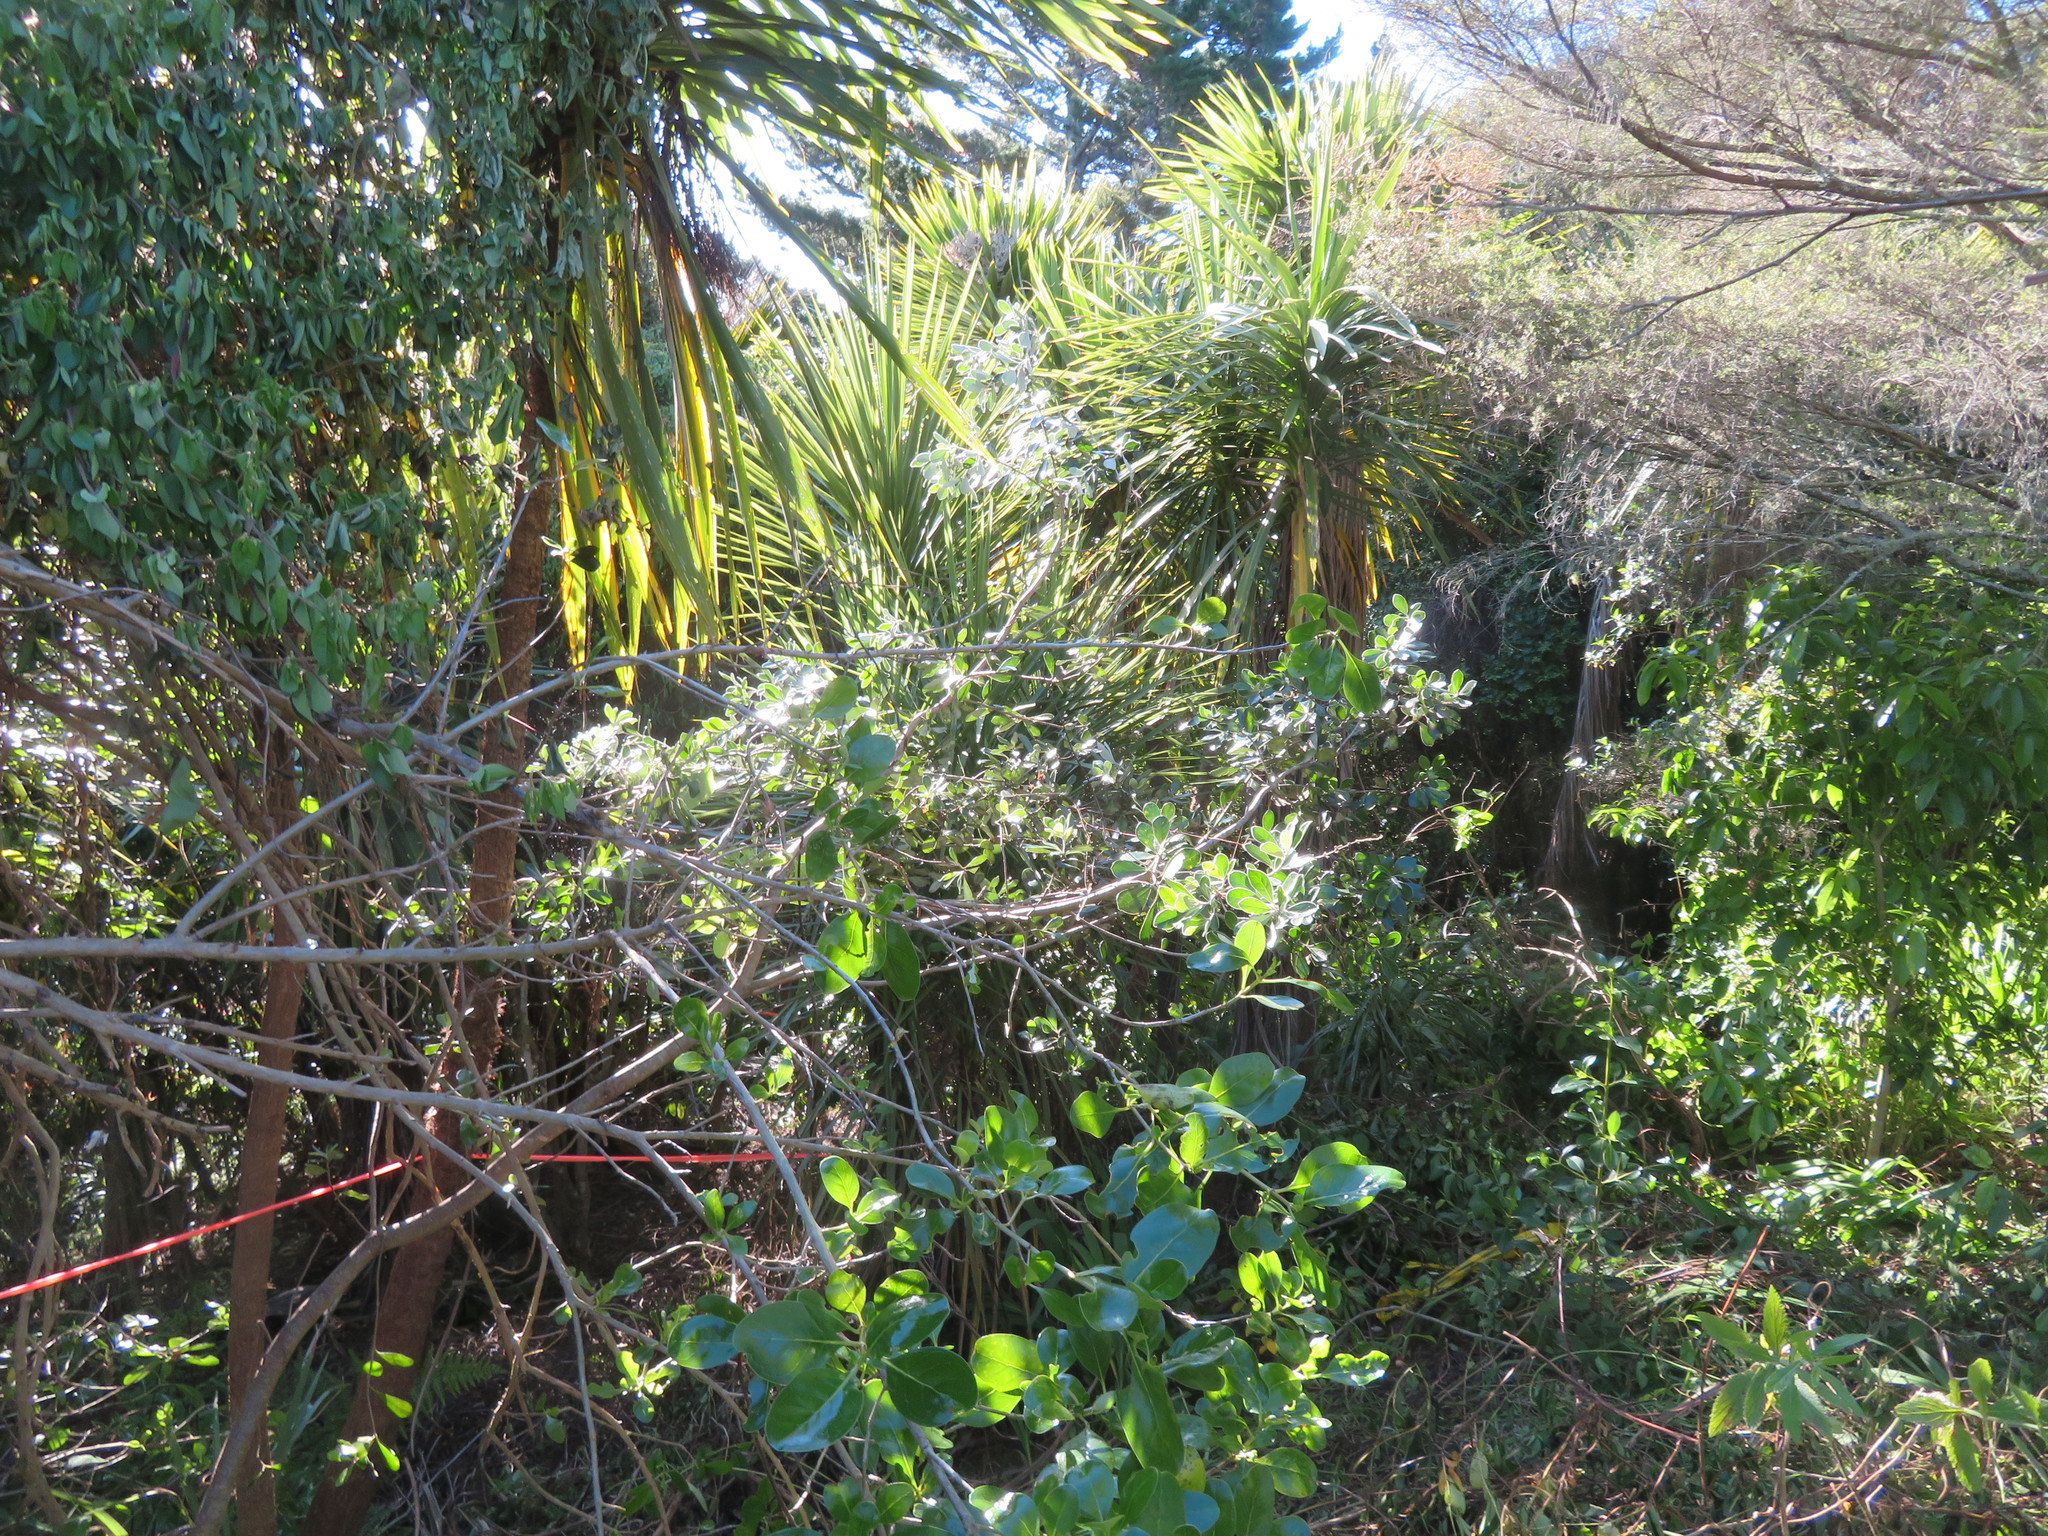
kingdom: Plantae
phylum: Tracheophyta
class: Liliopsida
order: Asparagales
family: Asparagaceae
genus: Cordyline
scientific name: Cordyline australis
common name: Cabbage-palm
